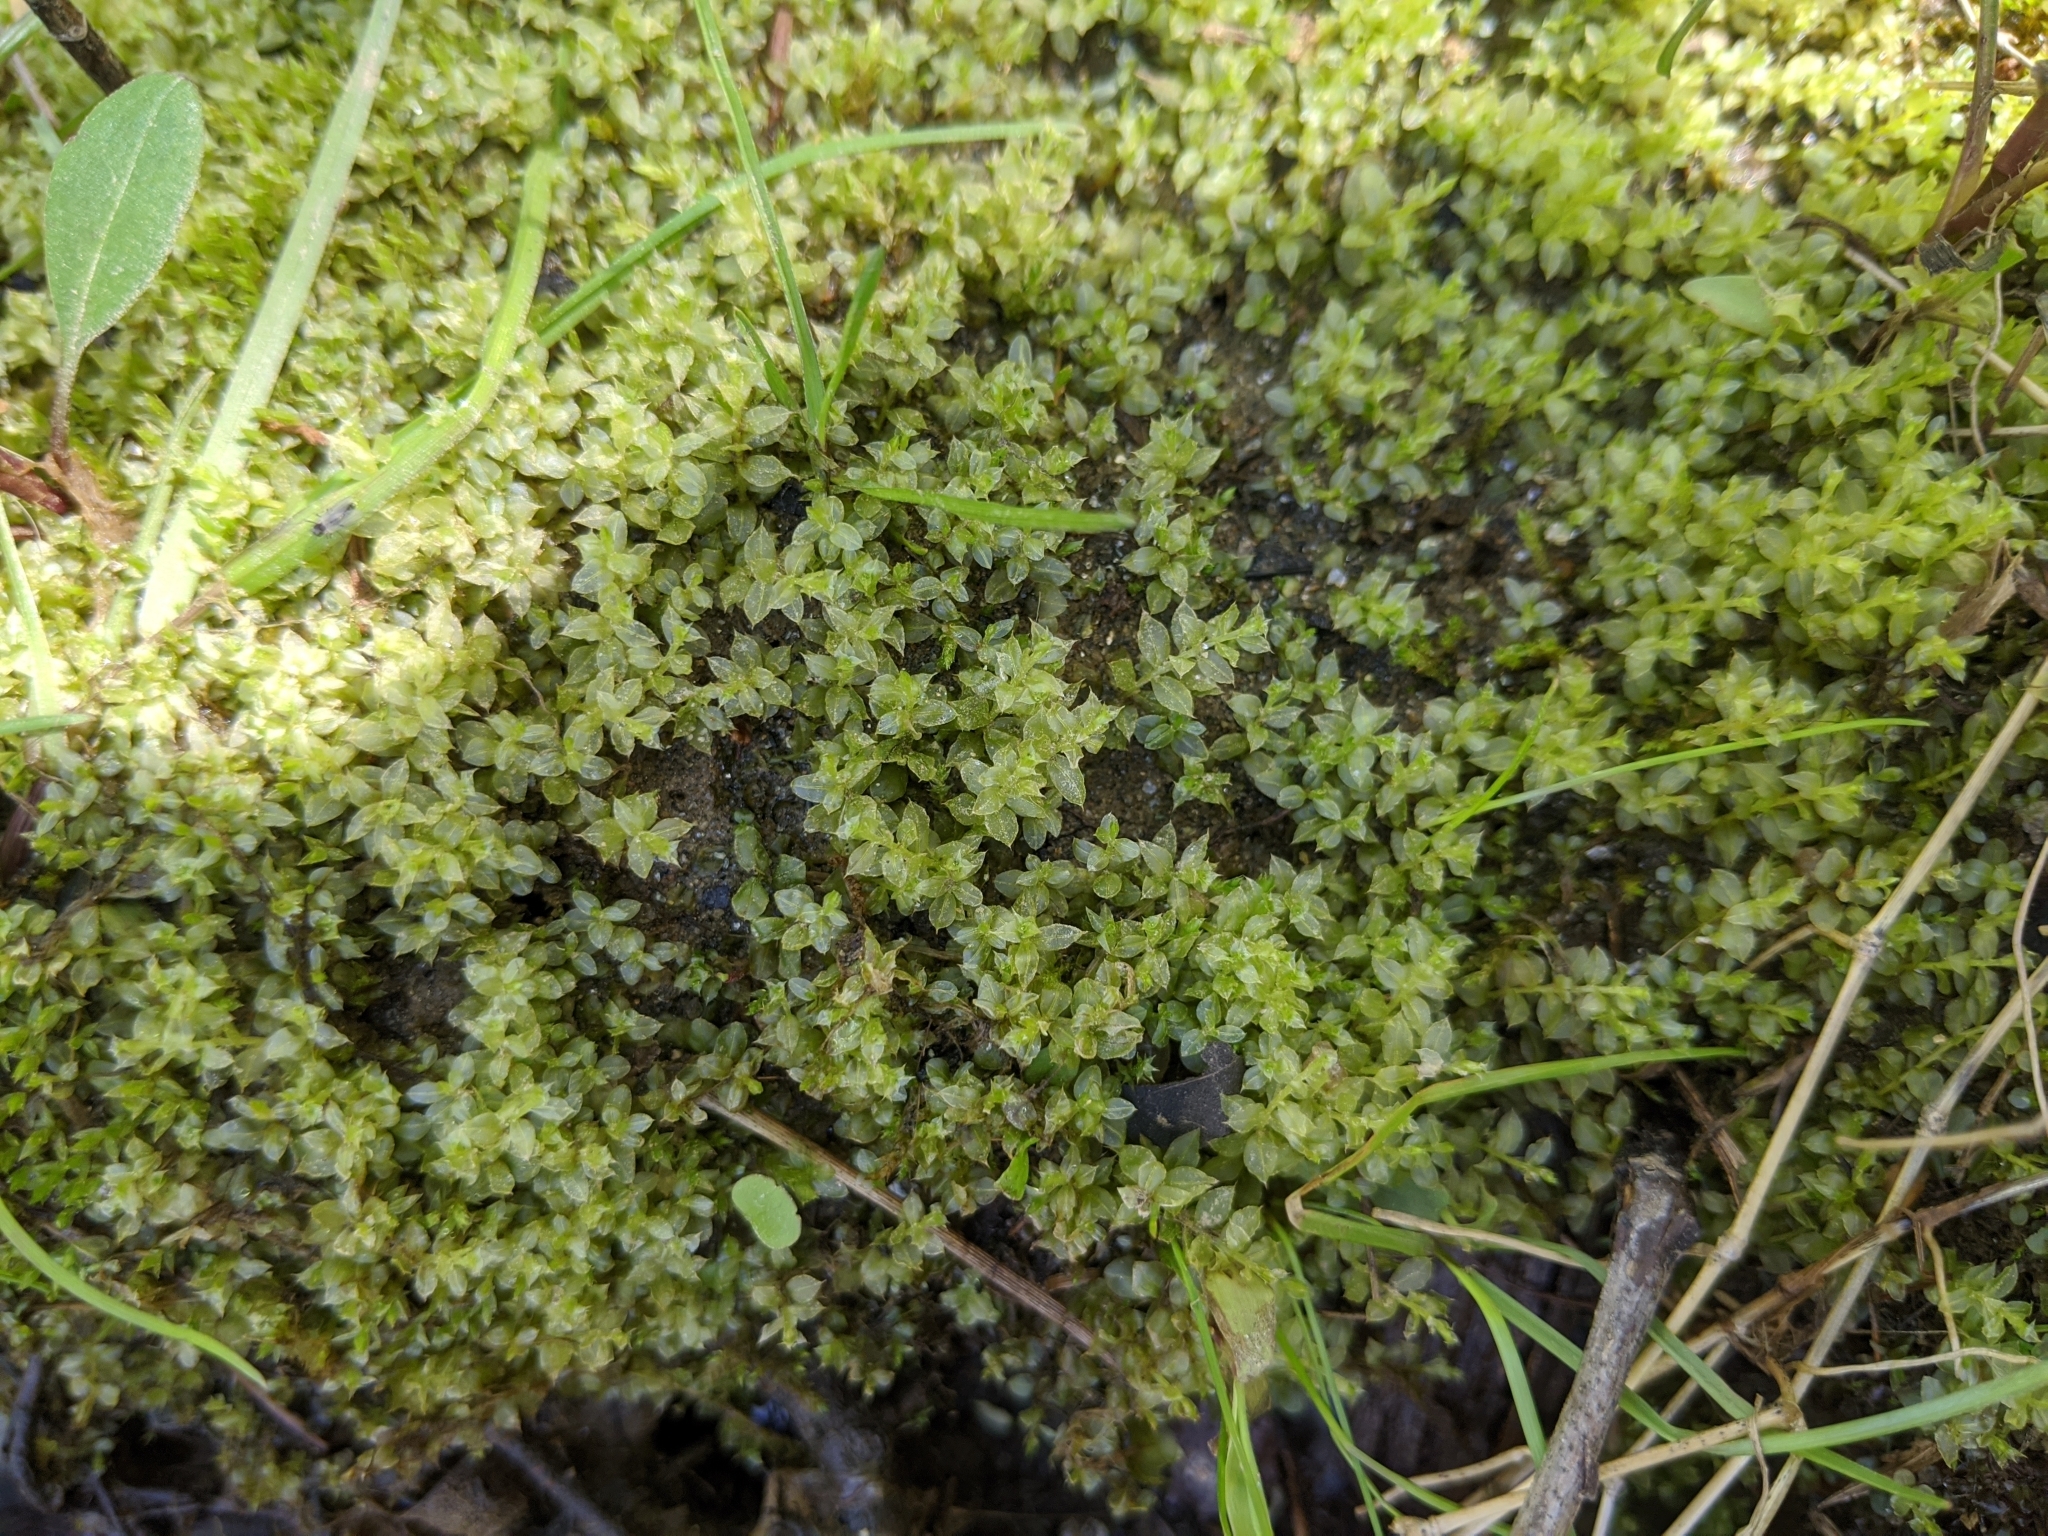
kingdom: Plantae
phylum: Bryophyta
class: Bryopsida
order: Bryales
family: Mniaceae
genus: Plagiomnium
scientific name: Plagiomnium cuspidatum
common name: Woodsy leafy moss
